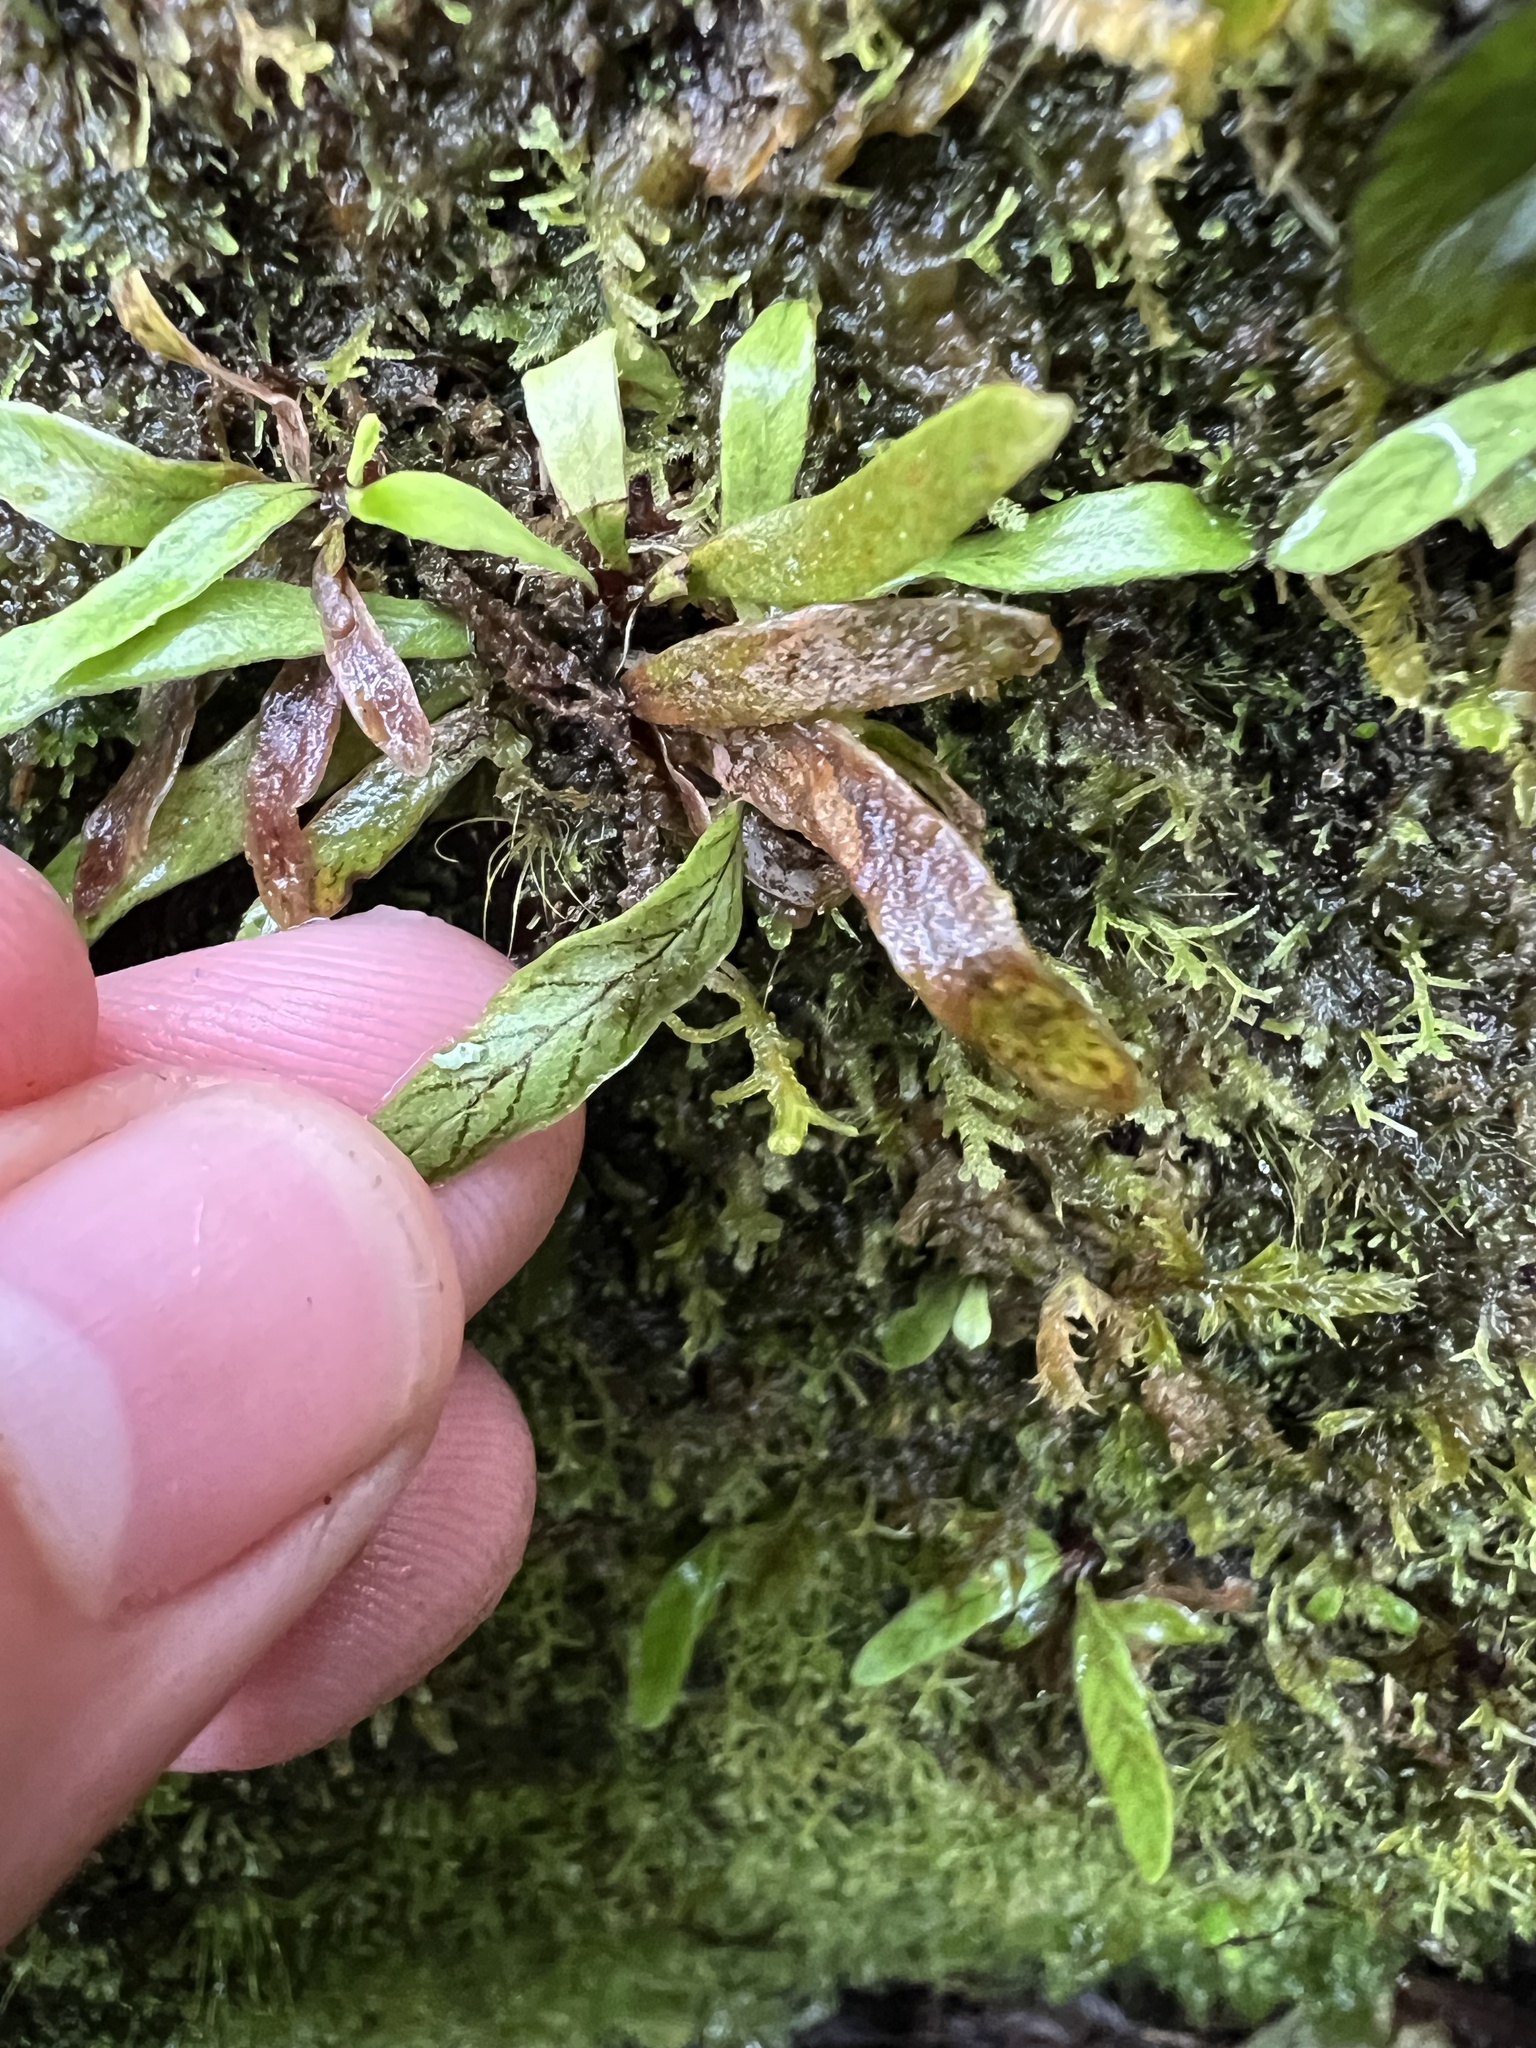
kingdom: Plantae
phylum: Tracheophyta
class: Polypodiopsida
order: Polypodiales
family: Polypodiaceae
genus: Notogrammitis
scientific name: Notogrammitis billardierei
